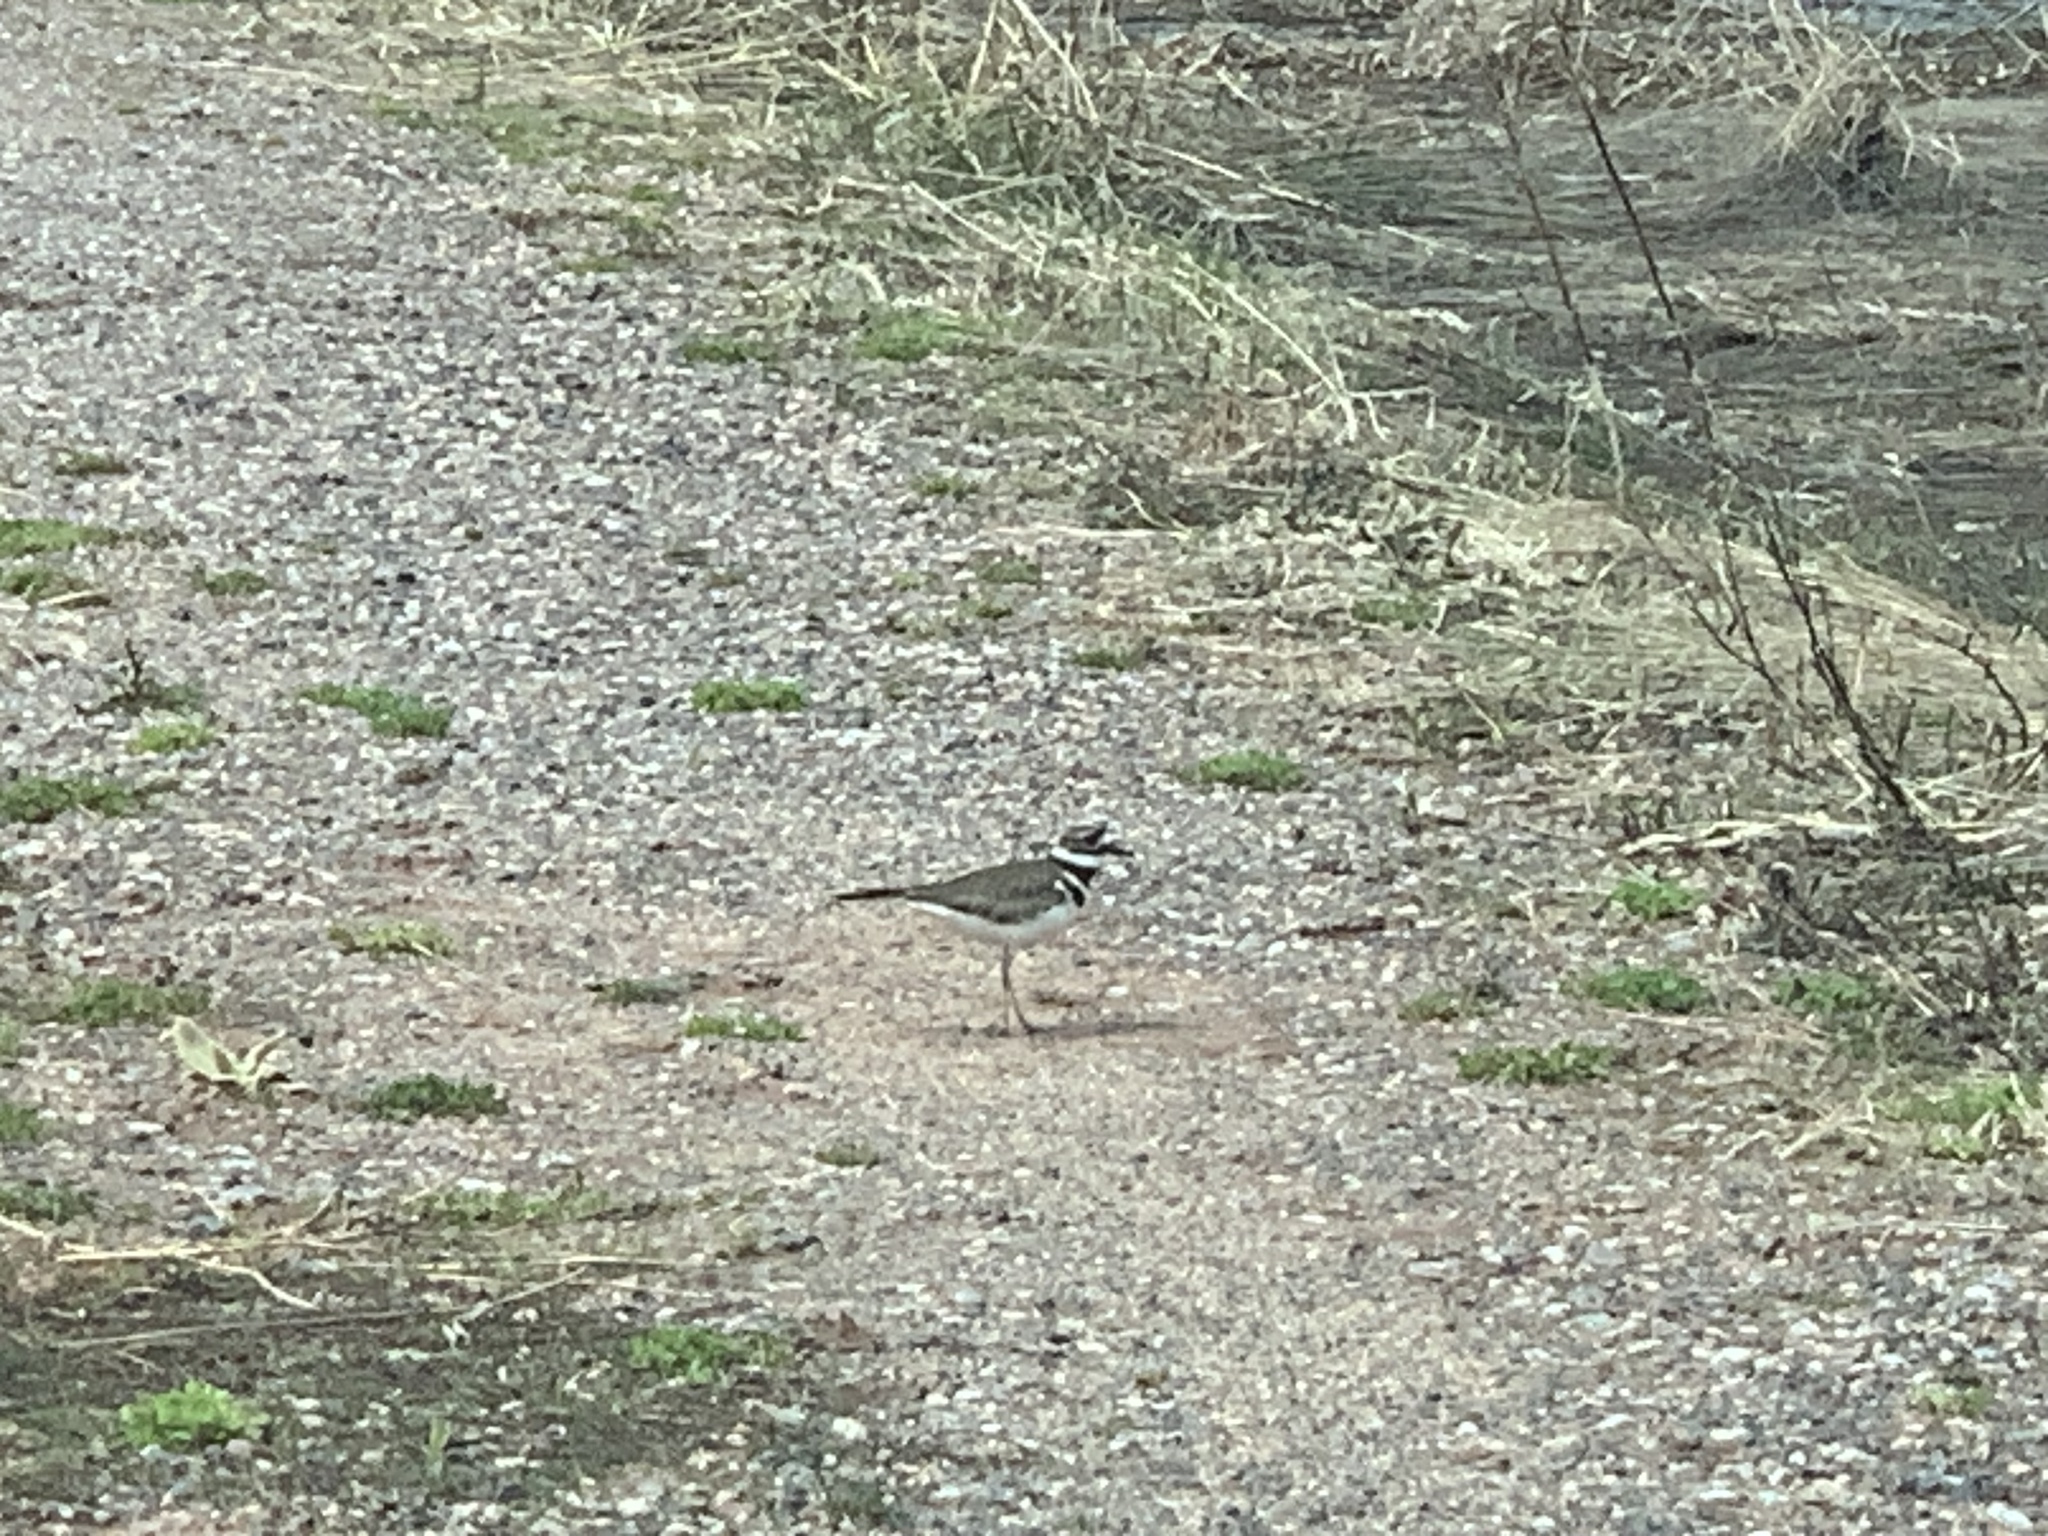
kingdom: Animalia
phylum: Chordata
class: Aves
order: Charadriiformes
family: Charadriidae
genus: Charadrius
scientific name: Charadrius vociferus
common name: Killdeer
